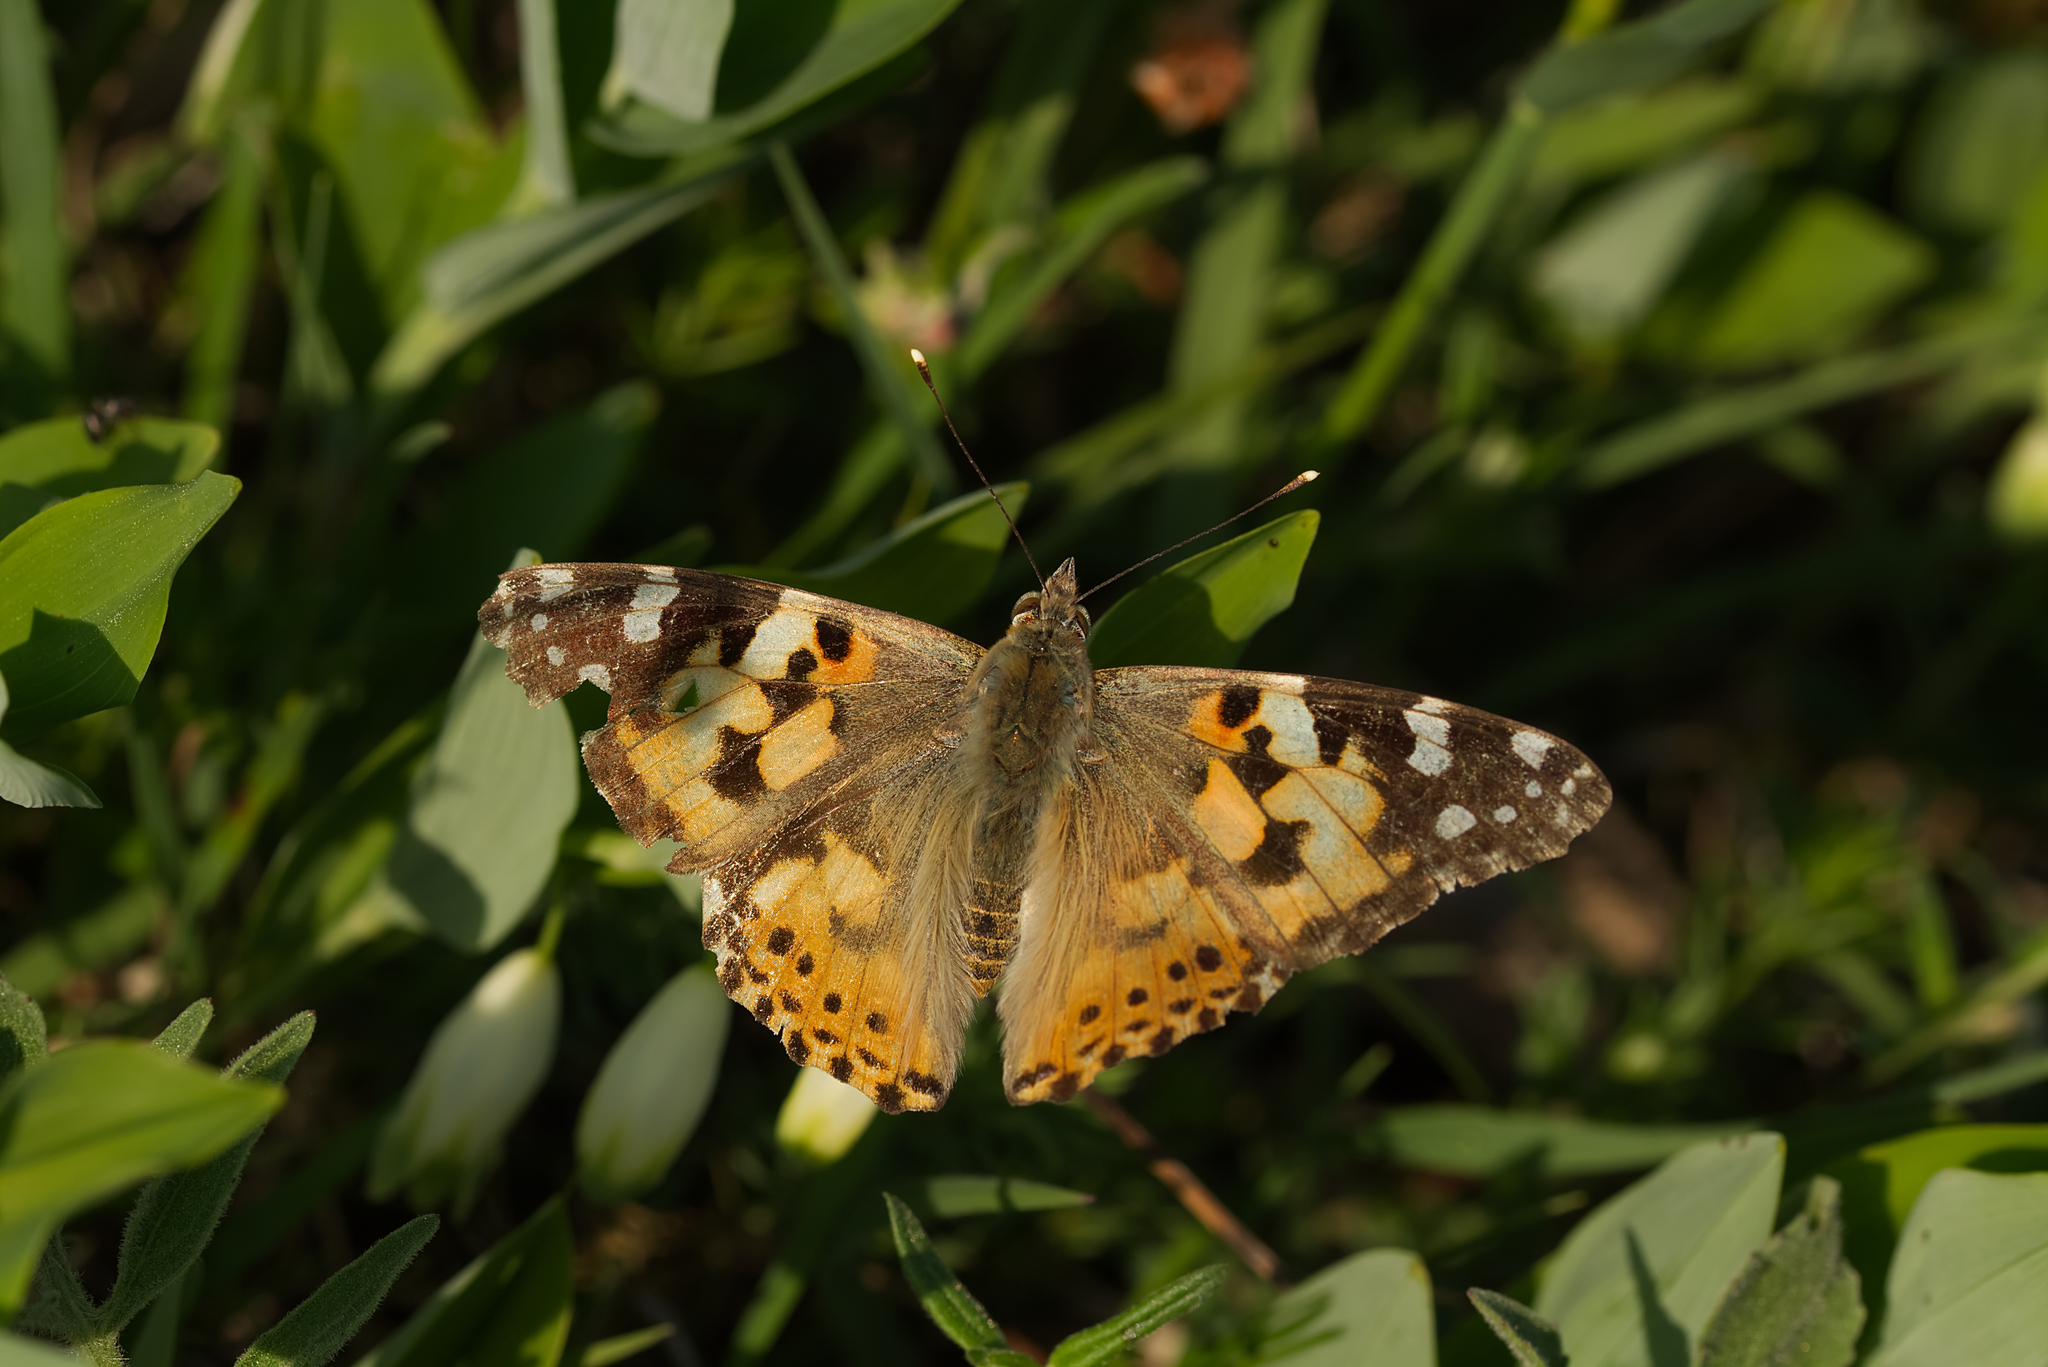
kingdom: Animalia
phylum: Arthropoda
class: Insecta
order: Lepidoptera
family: Nymphalidae
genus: Vanessa
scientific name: Vanessa cardui
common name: Painted lady
